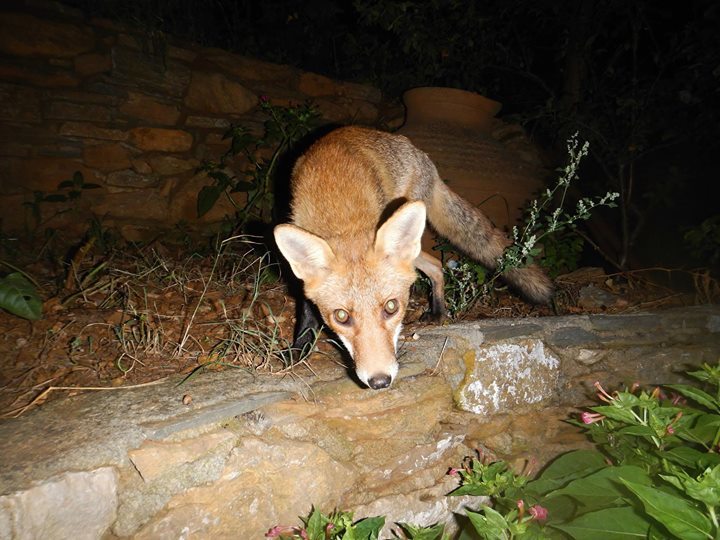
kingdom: Animalia
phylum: Chordata
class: Mammalia
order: Carnivora
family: Canidae
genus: Vulpes
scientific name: Vulpes vulpes
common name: Red fox
